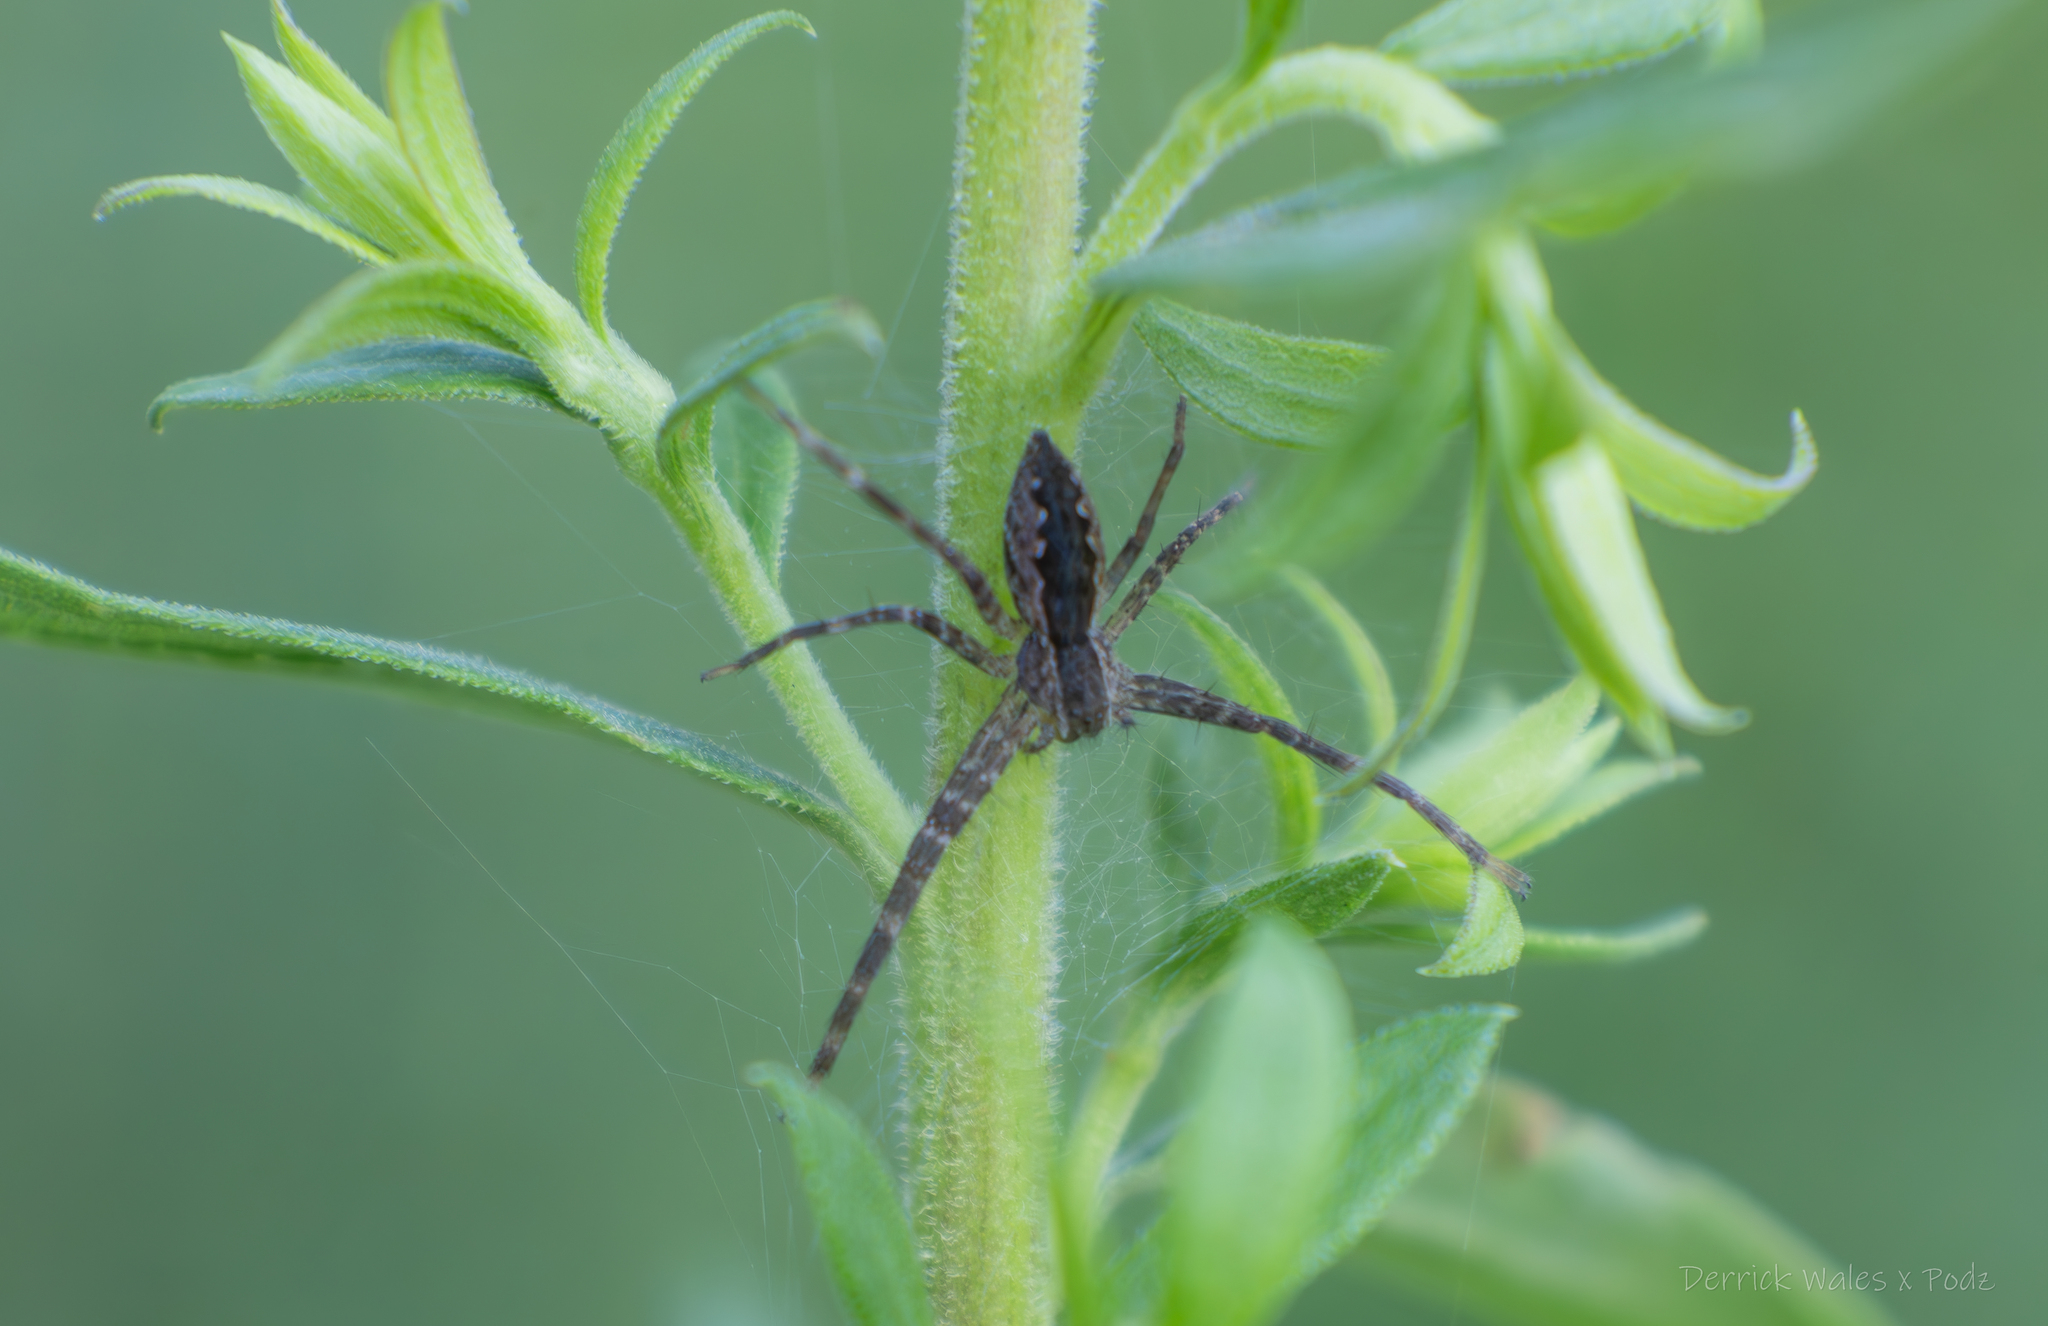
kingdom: Animalia
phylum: Arthropoda
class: Arachnida
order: Araneae
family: Pisauridae
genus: Pisaurina
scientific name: Pisaurina mira
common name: American nursery web spider
